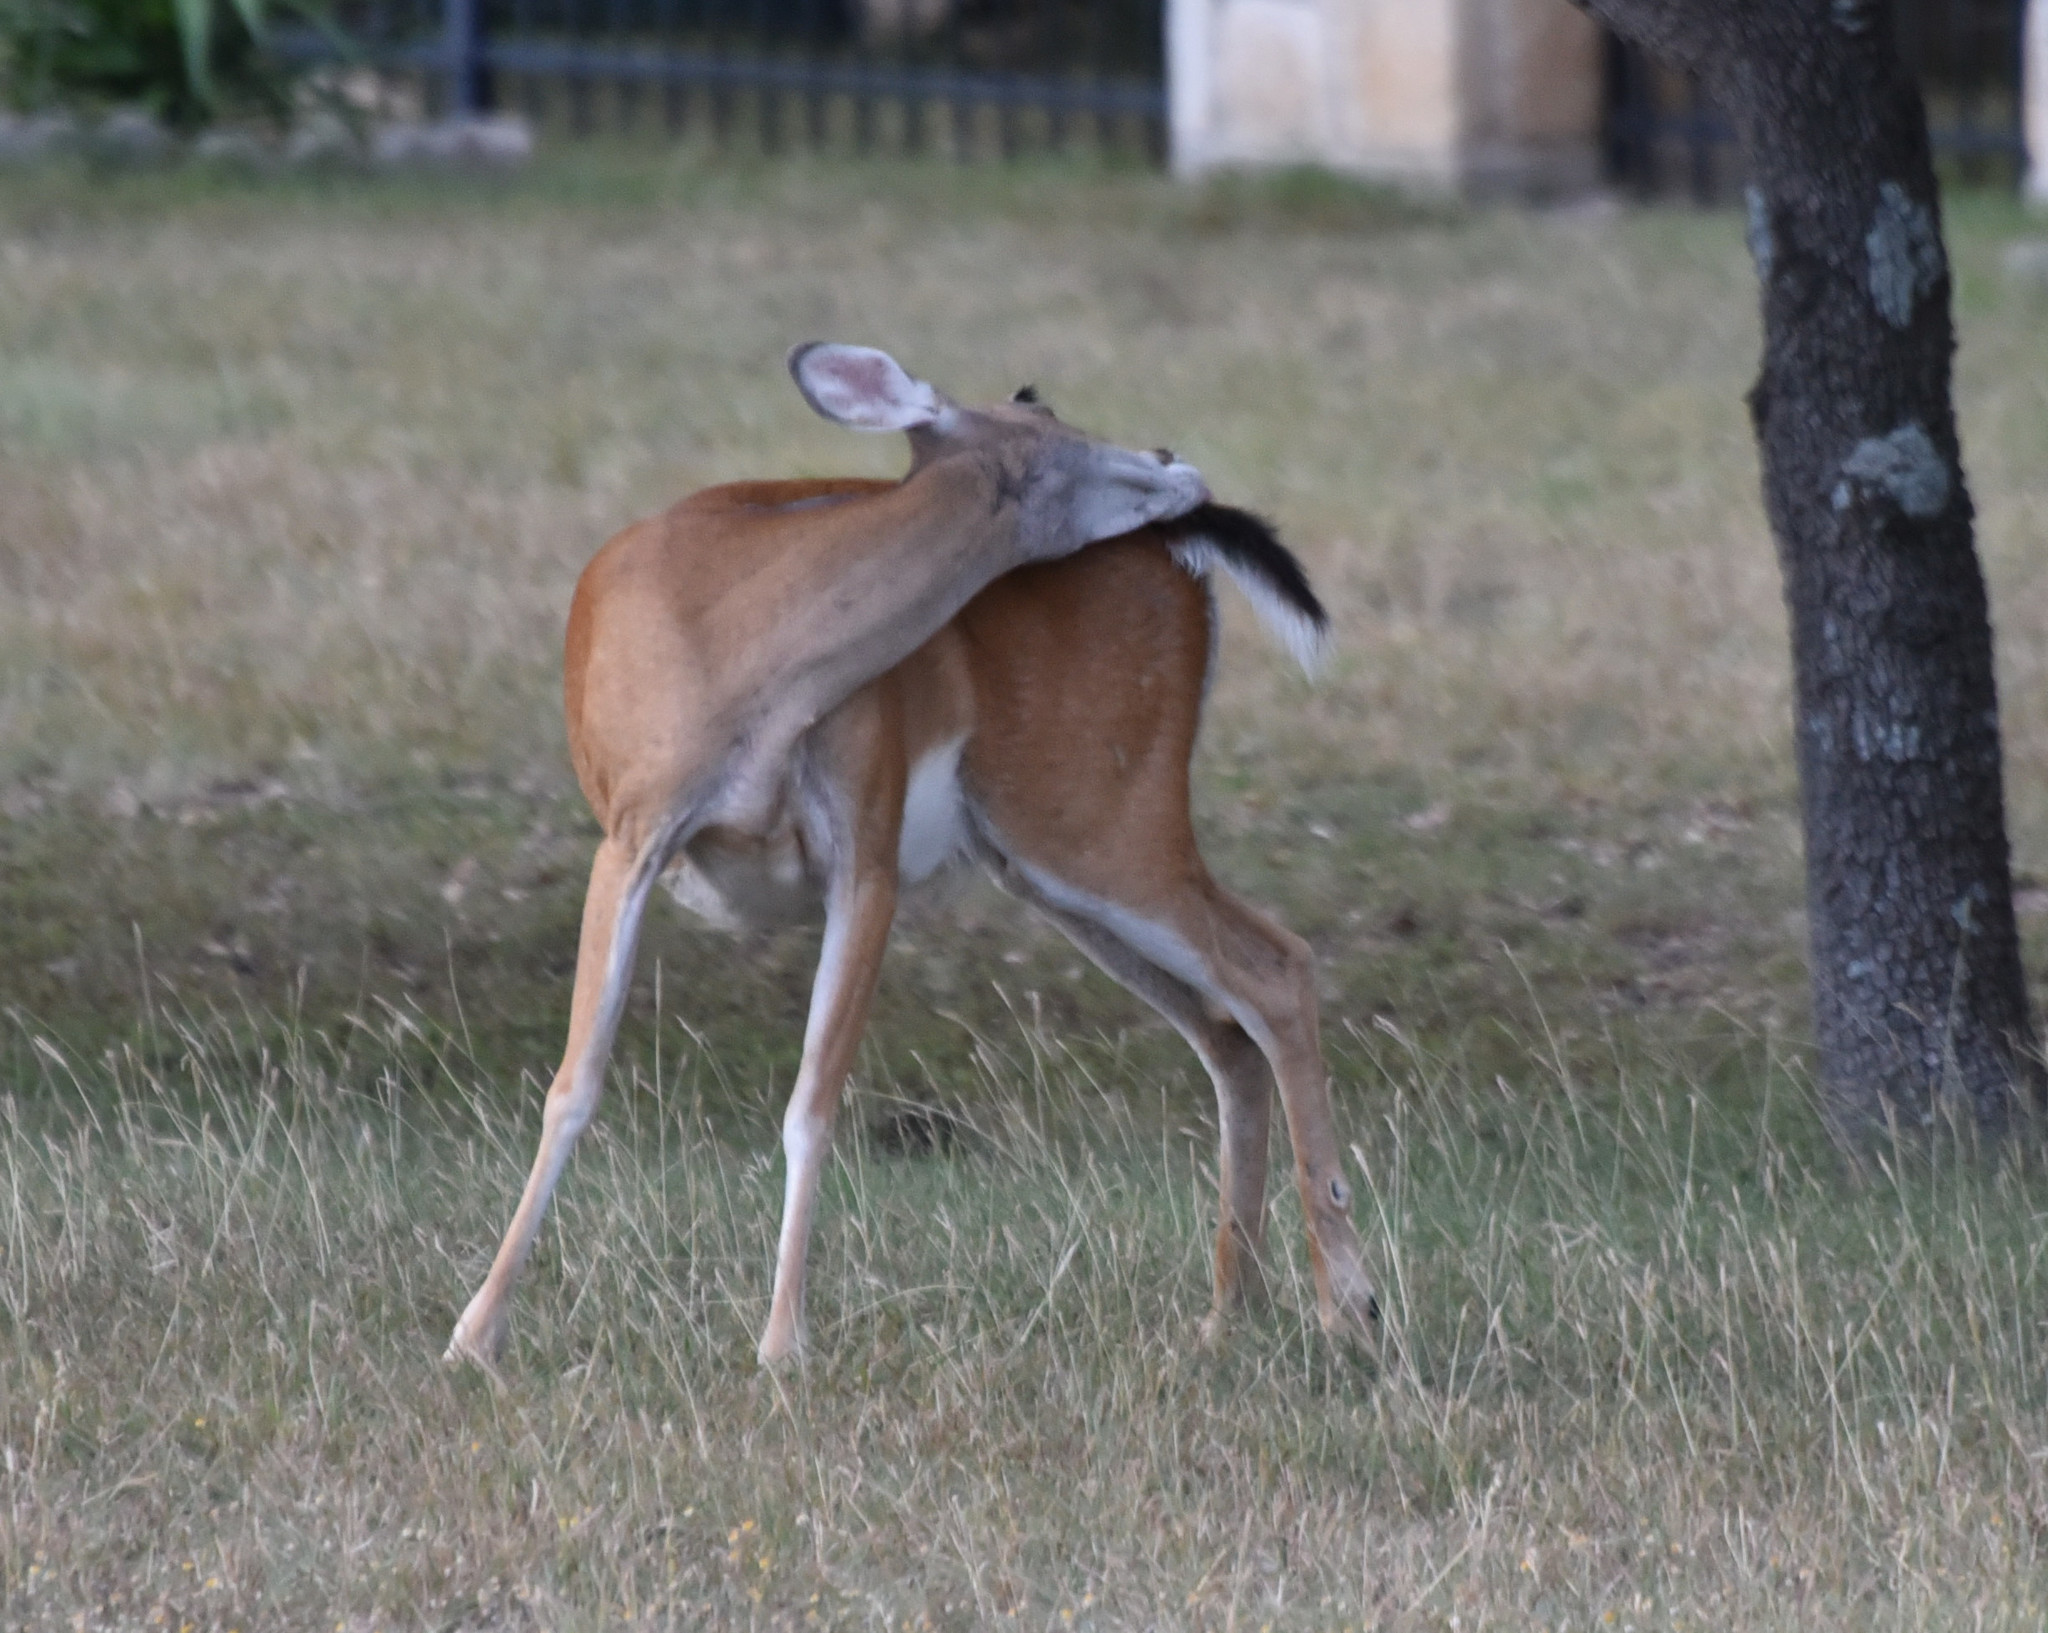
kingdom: Animalia
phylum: Chordata
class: Mammalia
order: Artiodactyla
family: Cervidae
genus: Odocoileus
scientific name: Odocoileus virginianus
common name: White-tailed deer
